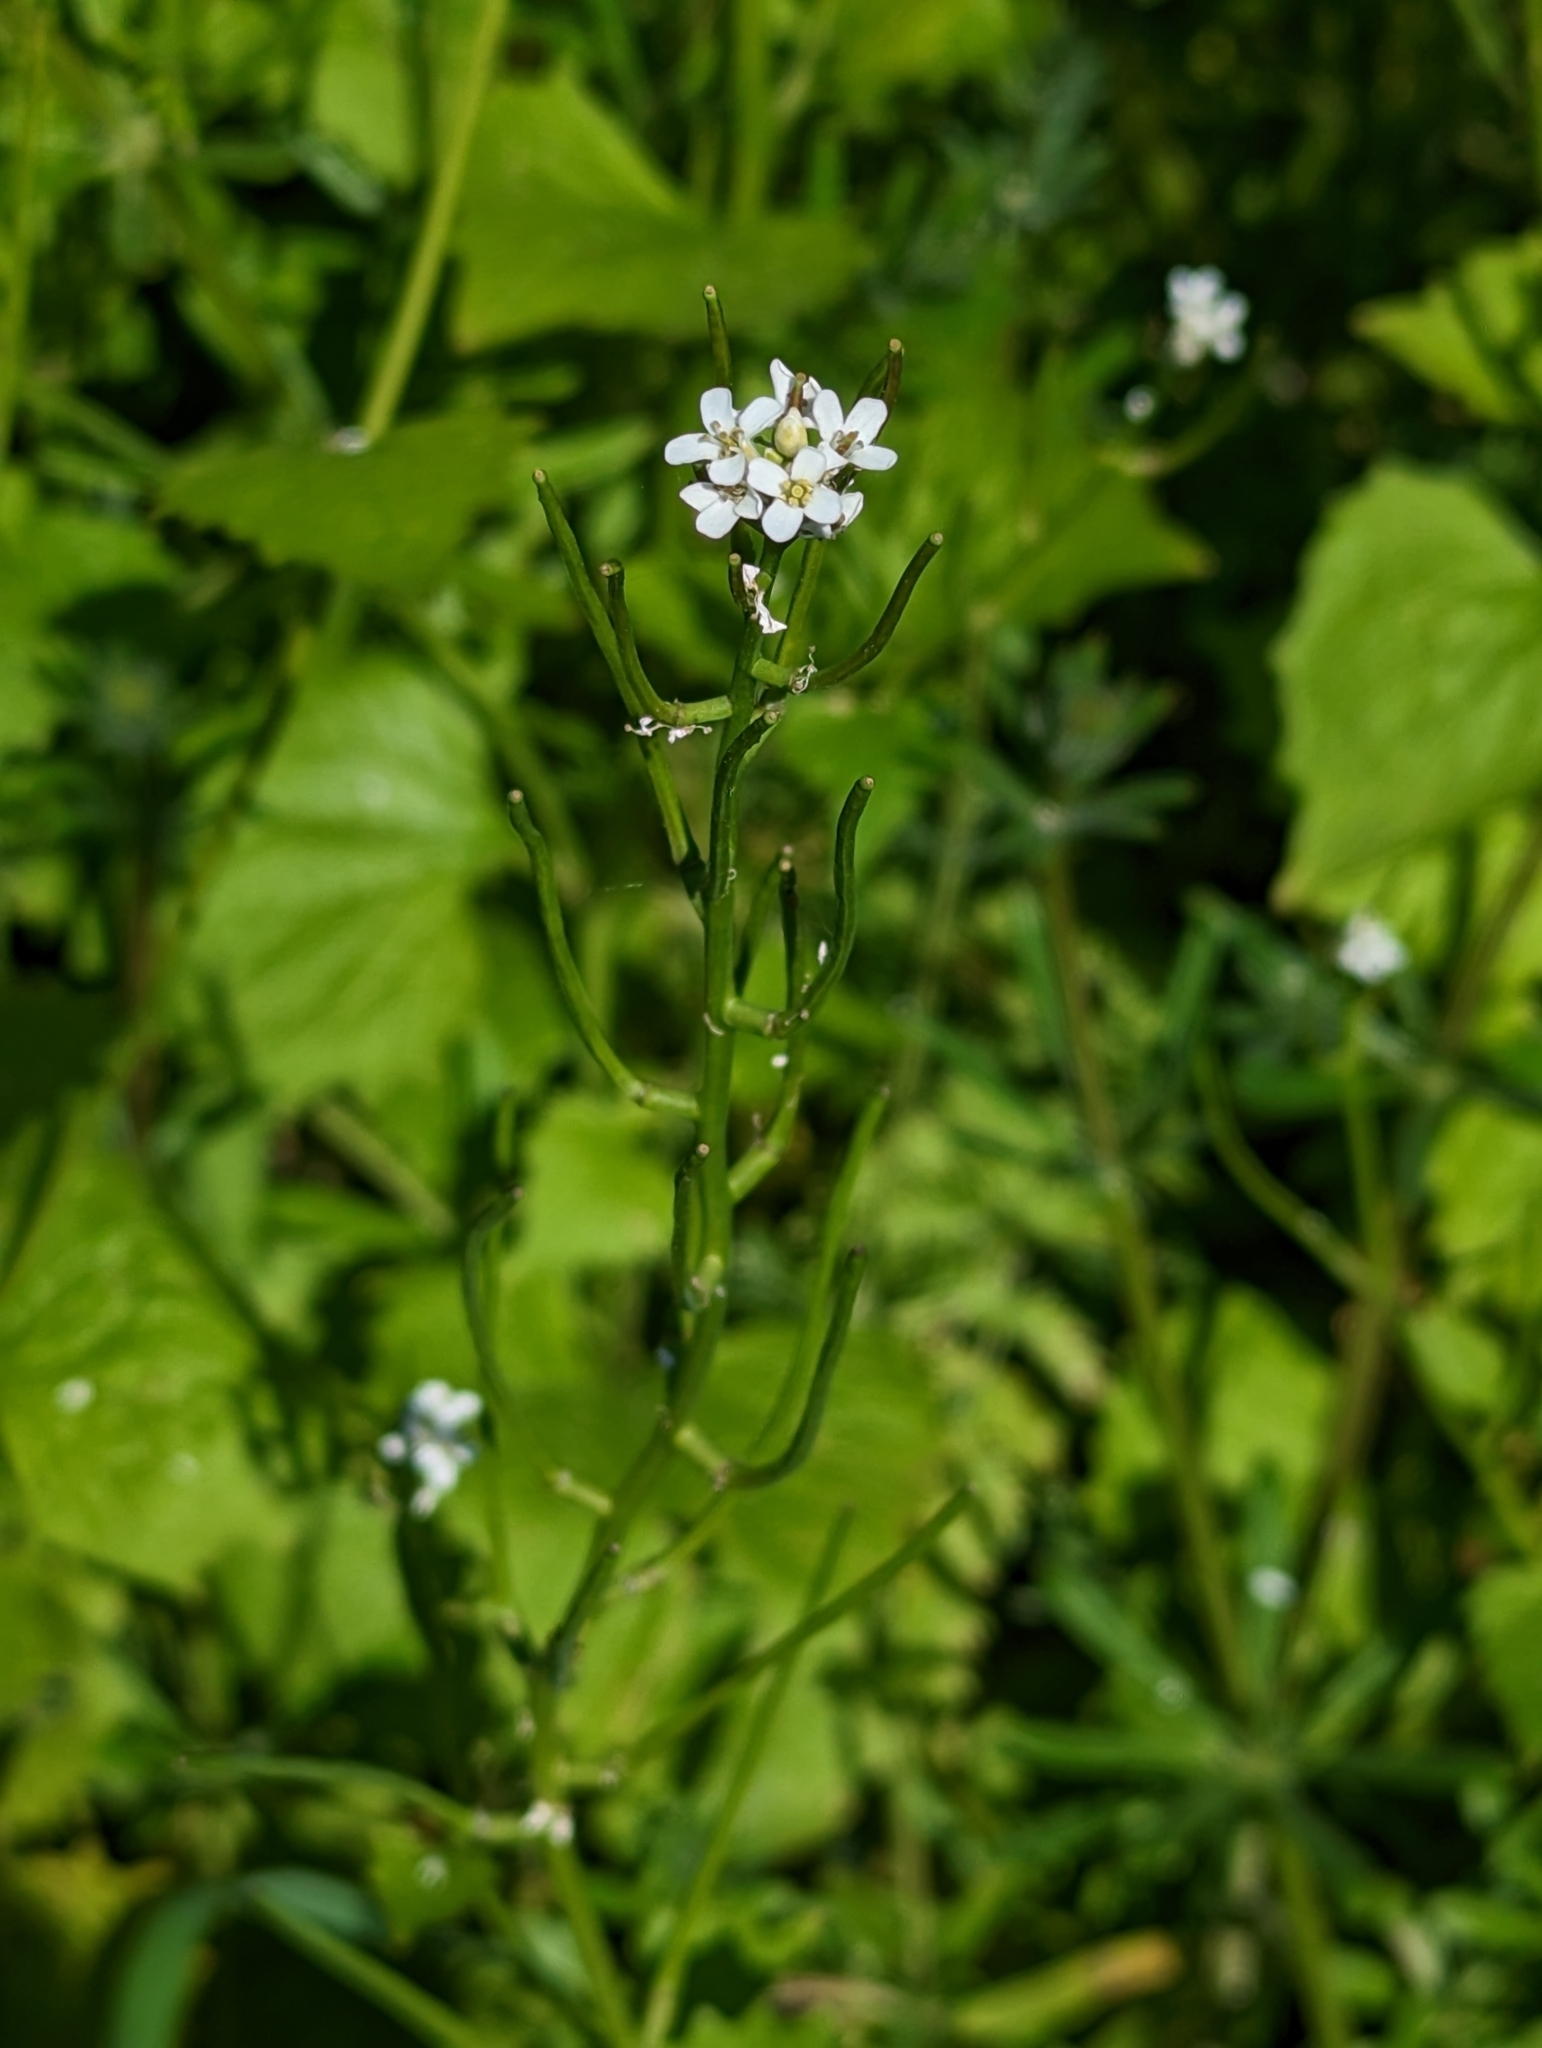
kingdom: Plantae
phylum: Tracheophyta
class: Magnoliopsida
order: Brassicales
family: Brassicaceae
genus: Alliaria
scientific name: Alliaria petiolata
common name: Garlic mustard
